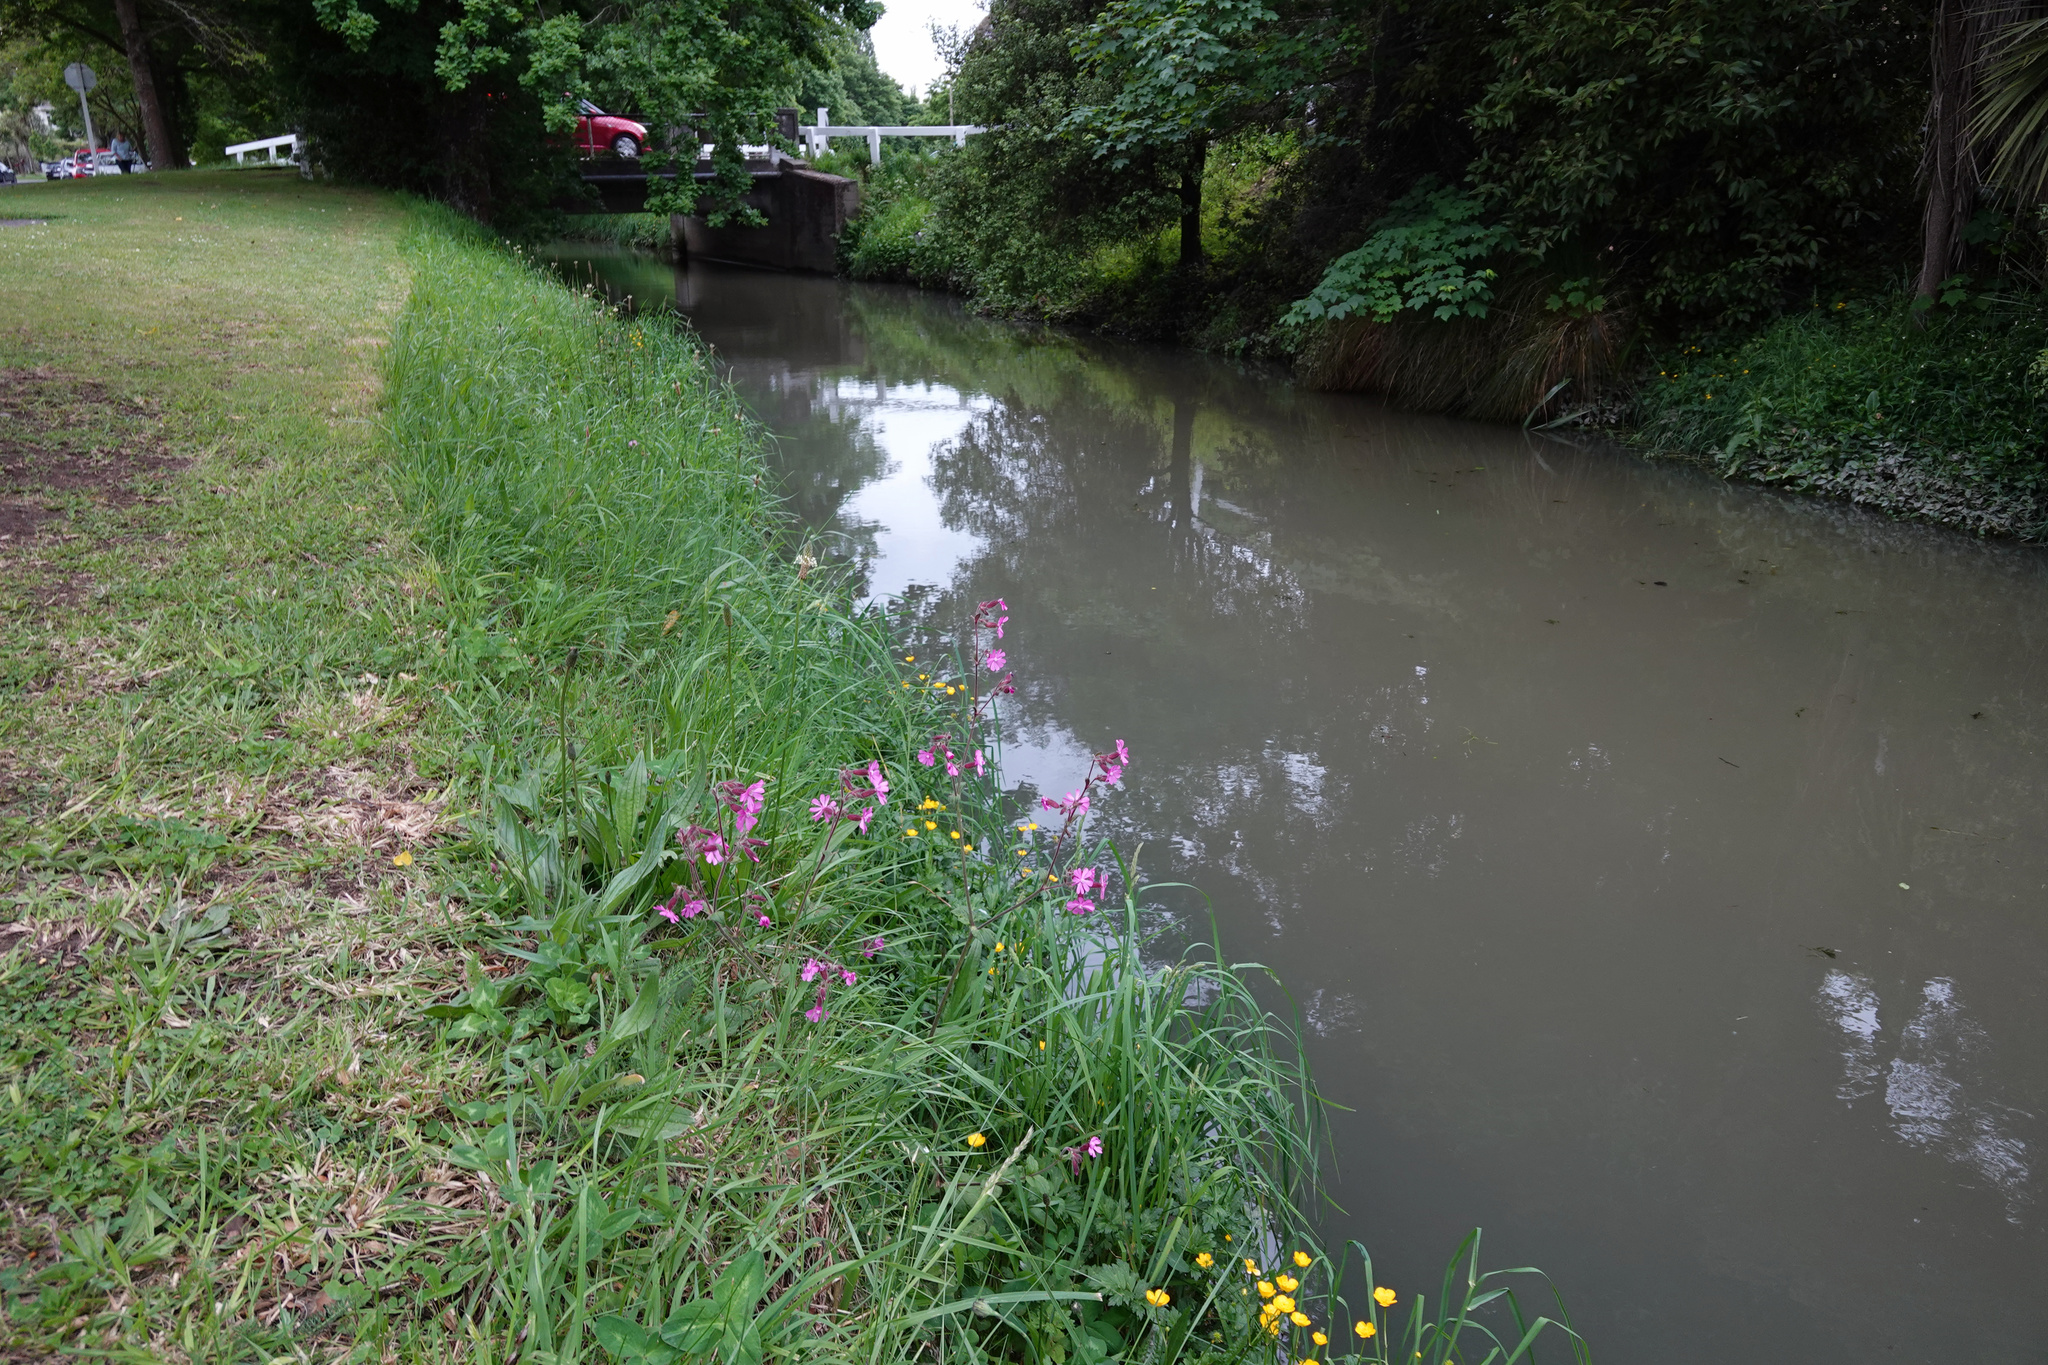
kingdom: Plantae
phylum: Tracheophyta
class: Magnoliopsida
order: Caryophyllales
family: Caryophyllaceae
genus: Silene
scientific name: Silene dioica
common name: Red campion
